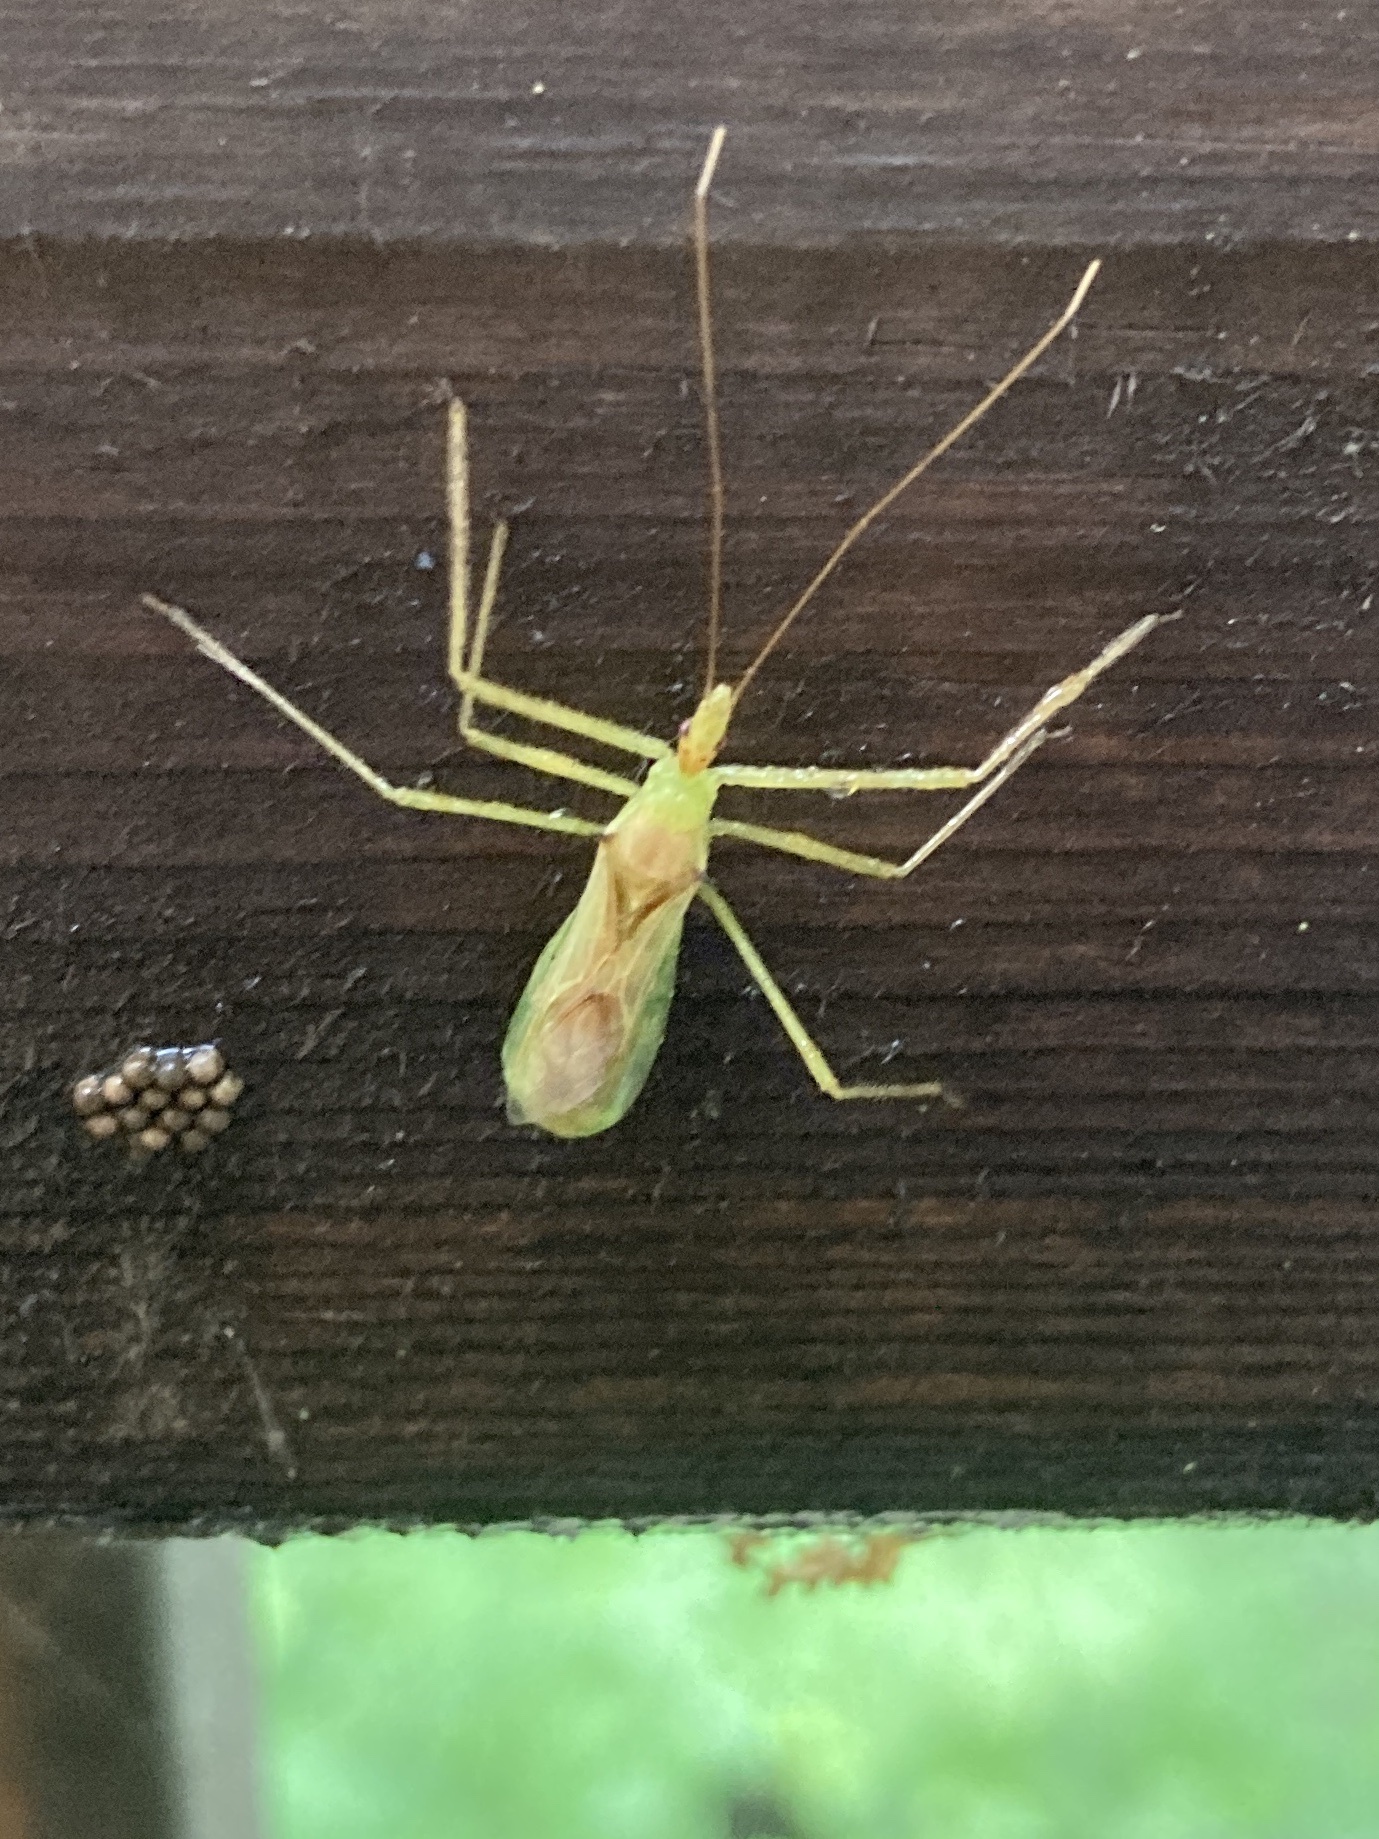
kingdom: Animalia
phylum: Arthropoda
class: Insecta
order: Hemiptera
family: Reduviidae
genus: Zelus
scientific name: Zelus luridus
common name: Pale green assassin bug
